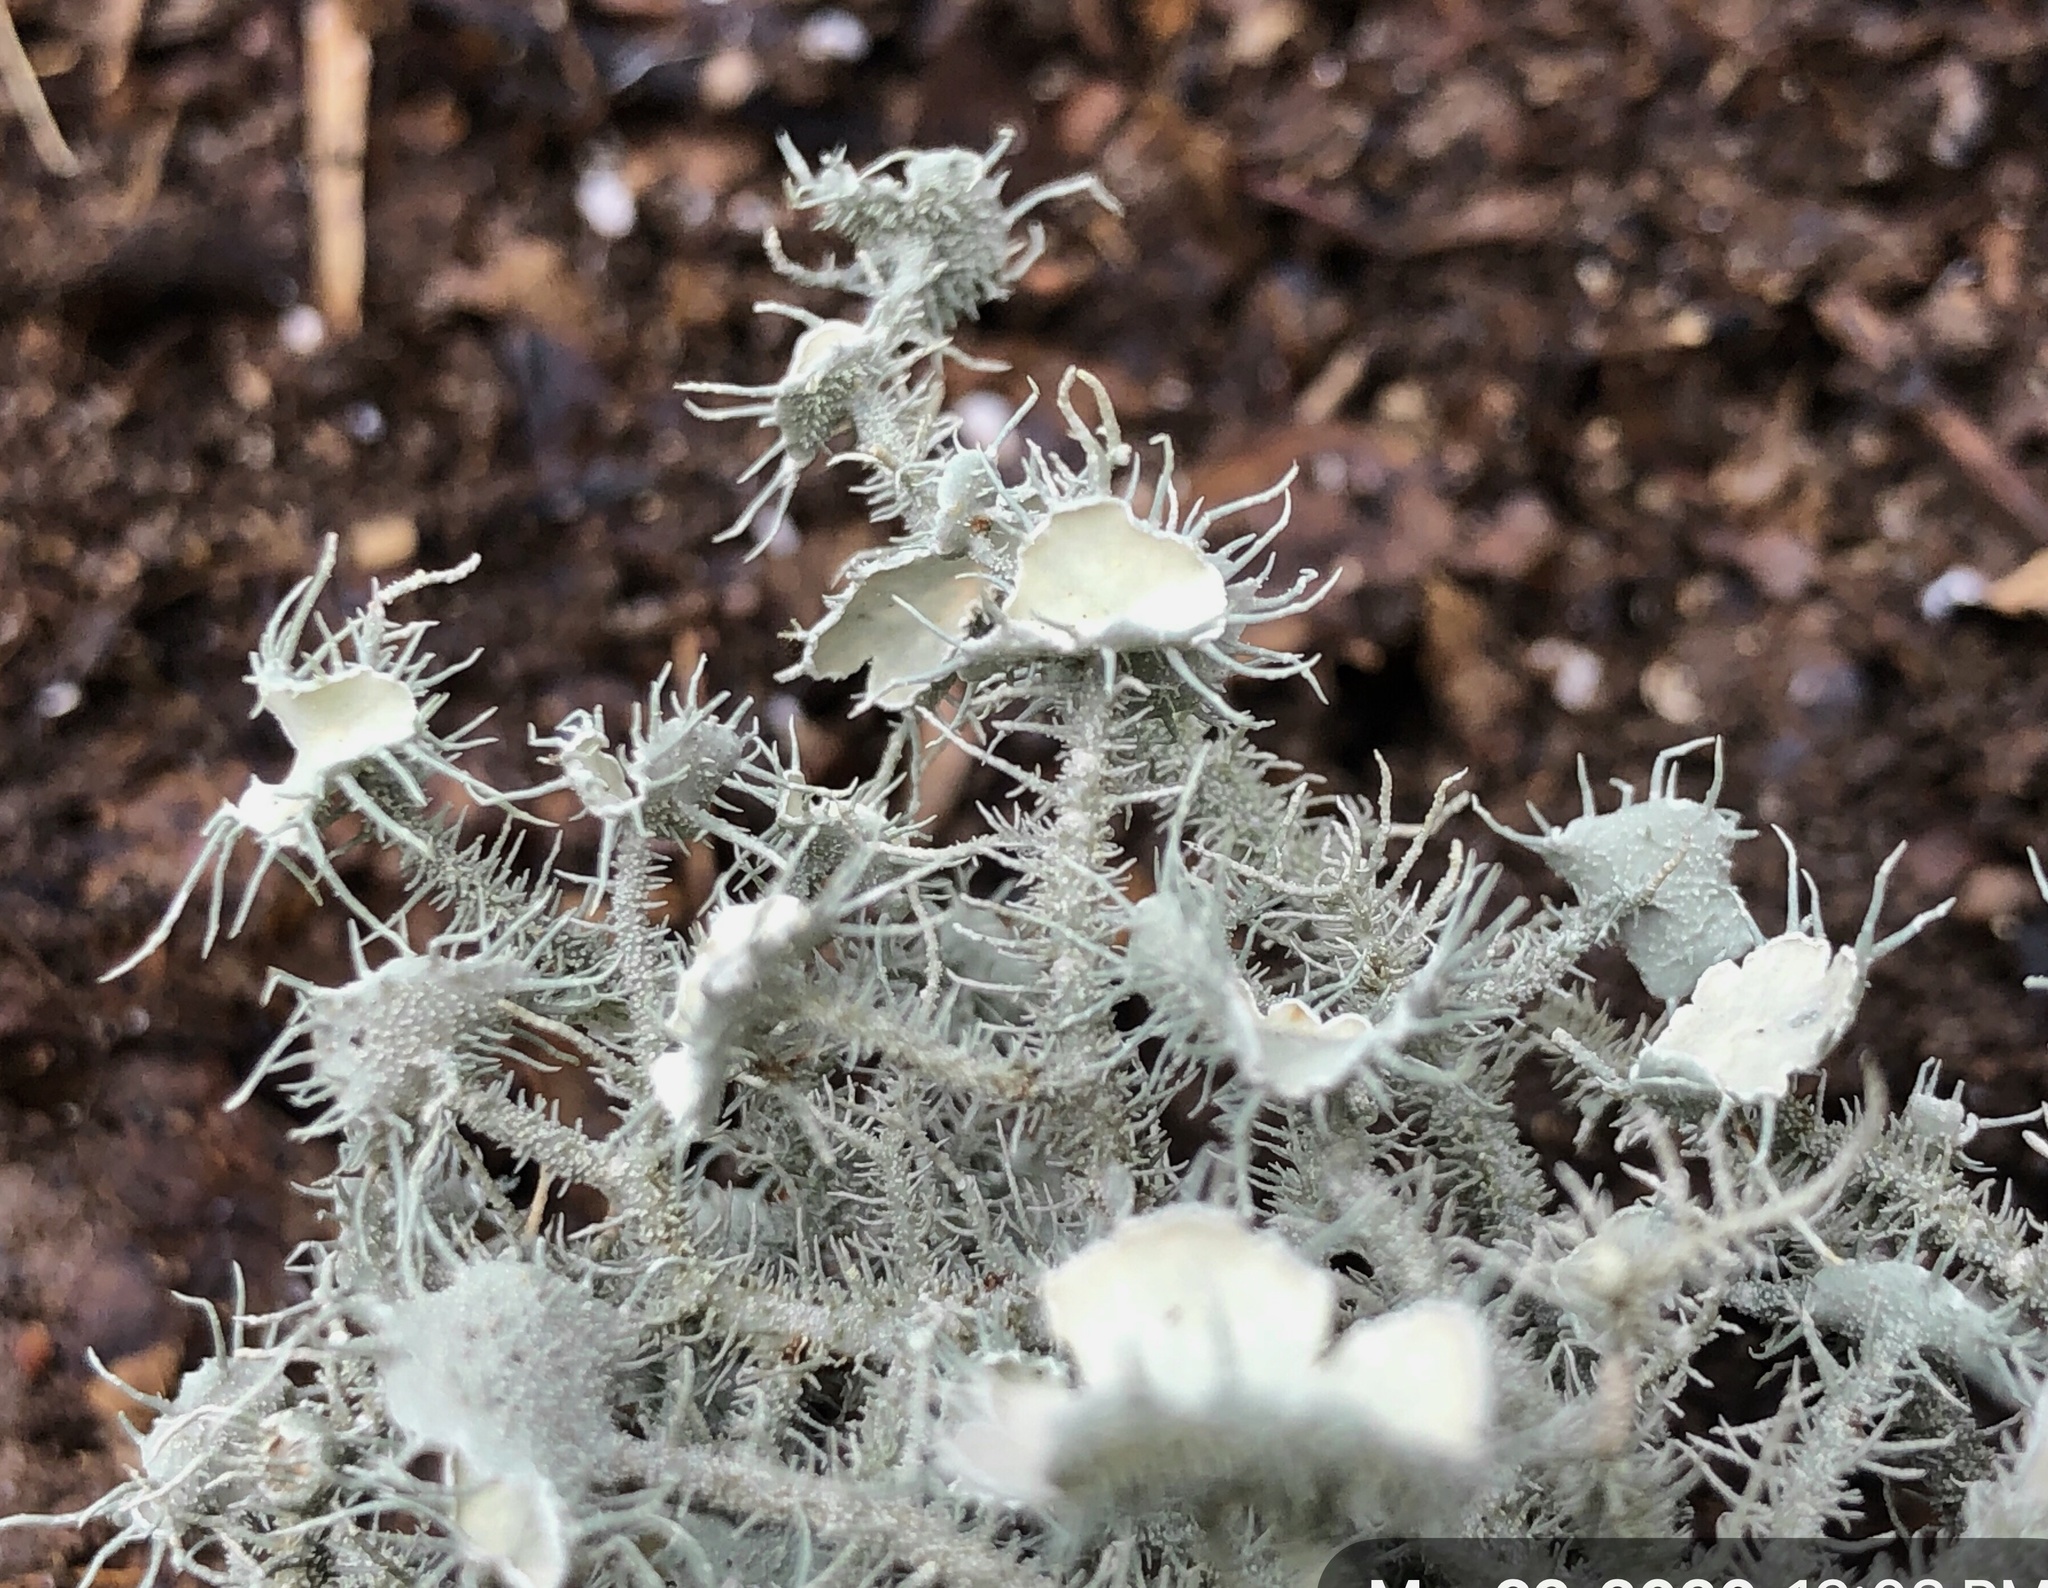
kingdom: Fungi
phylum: Ascomycota
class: Lecanoromycetes
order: Lecanorales
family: Parmeliaceae
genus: Usnea
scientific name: Usnea strigosa
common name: Bushy beard lichen
